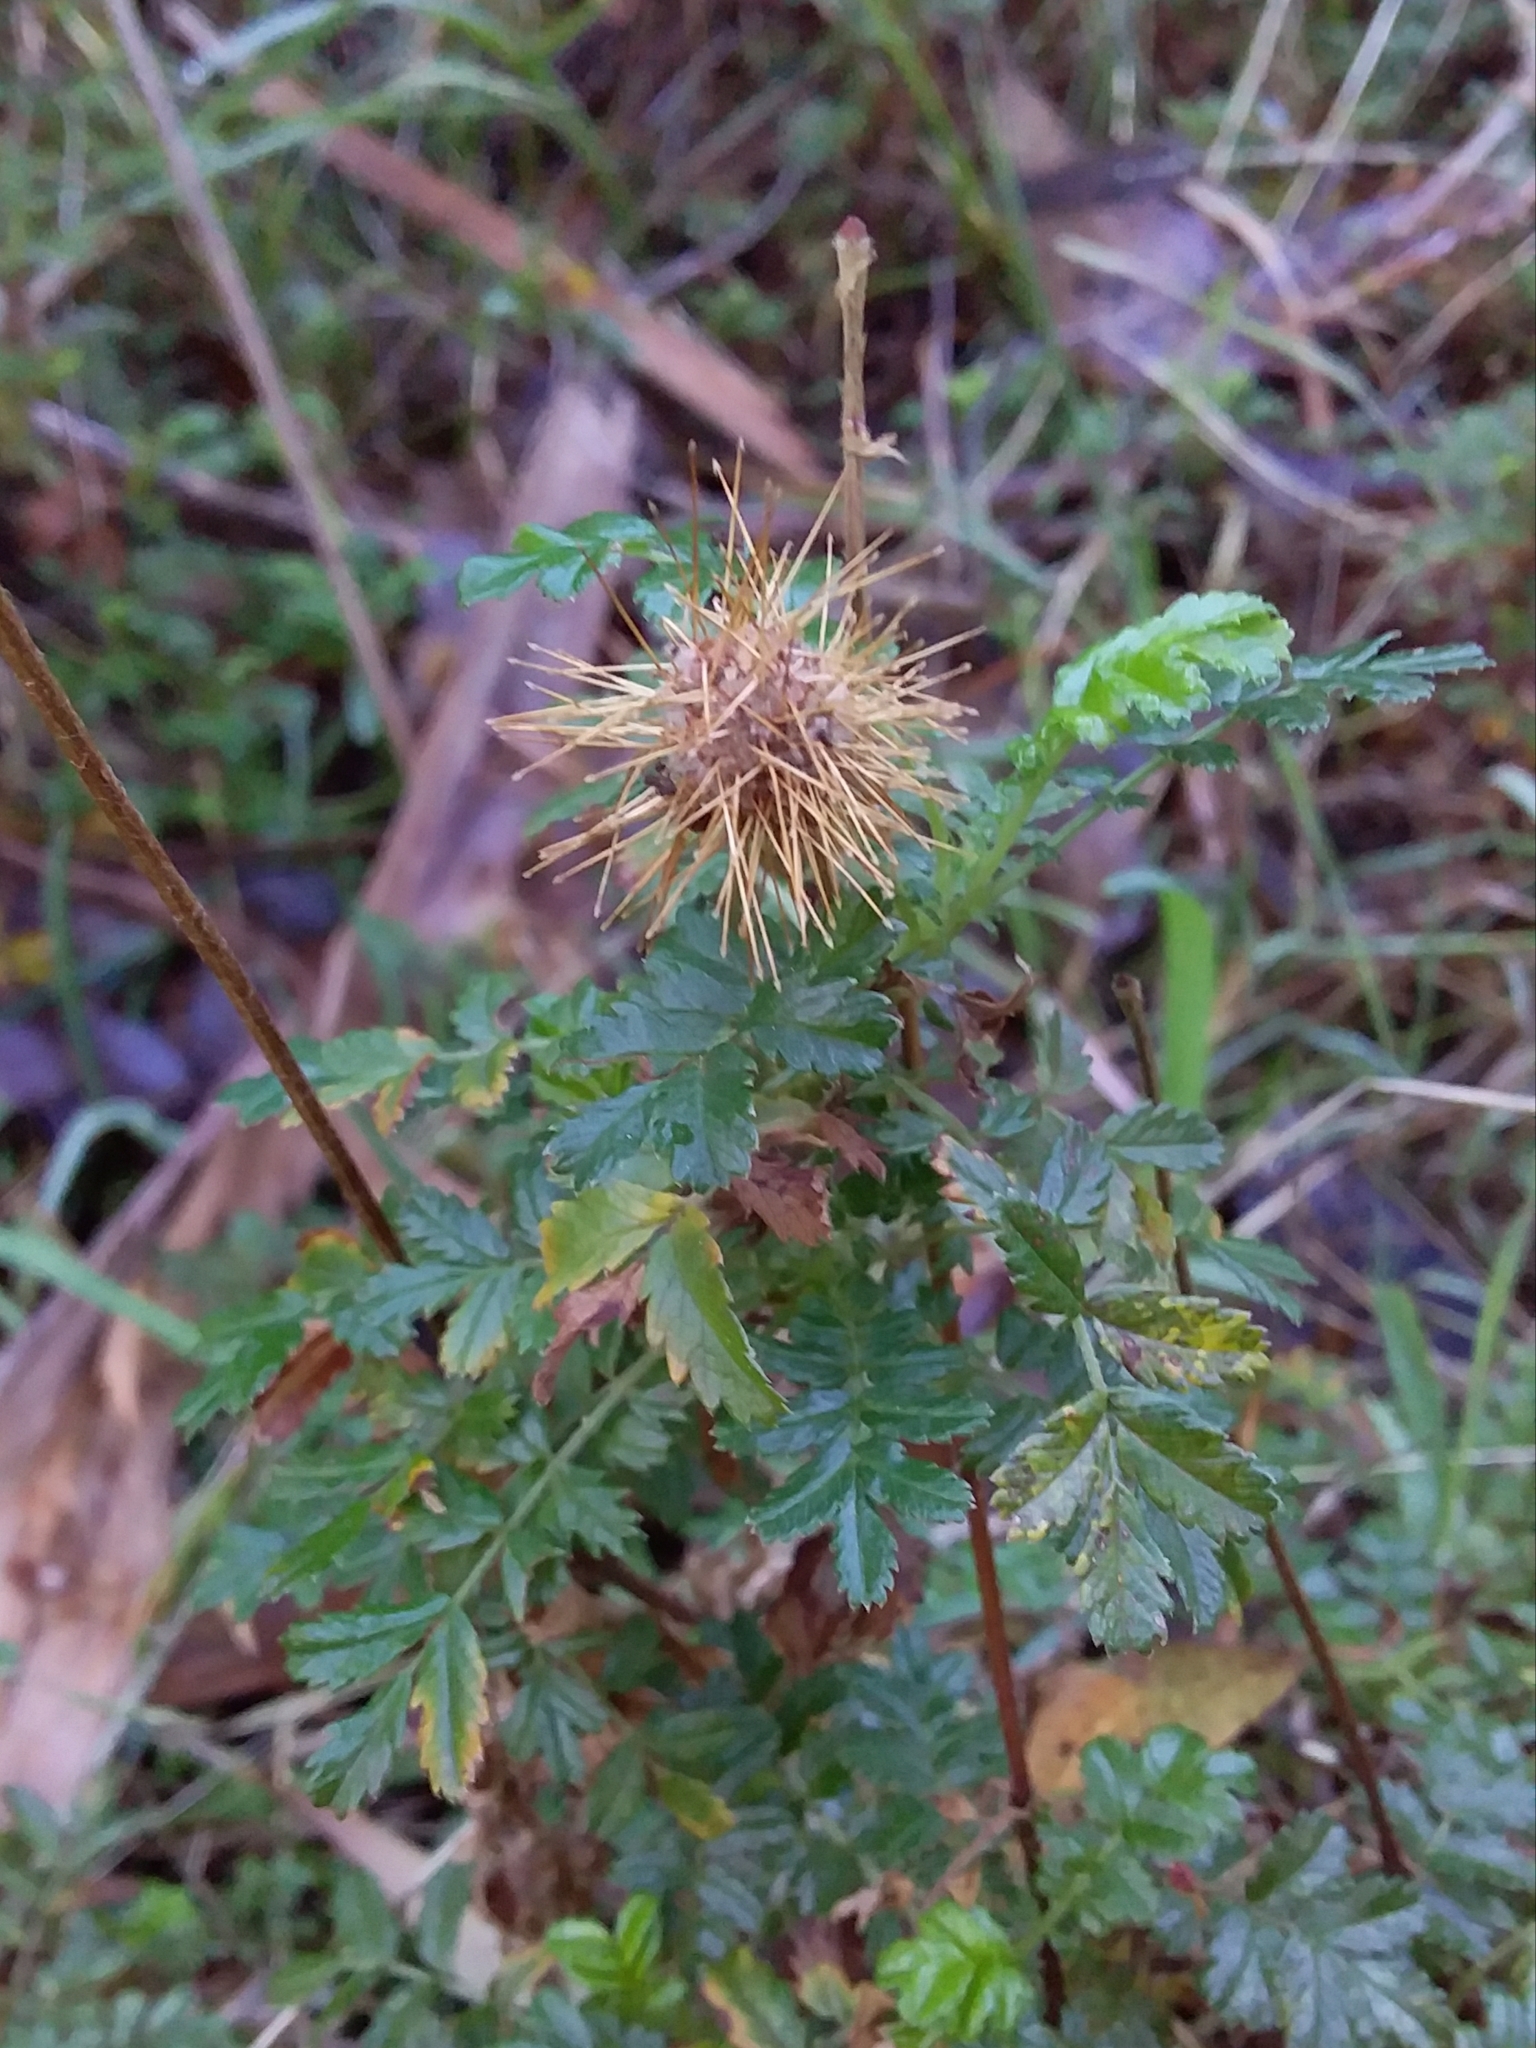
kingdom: Plantae
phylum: Tracheophyta
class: Magnoliopsida
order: Rosales
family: Rosaceae
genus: Acaena
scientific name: Acaena novae-zelandiae
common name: Pirri-pirri-bur
